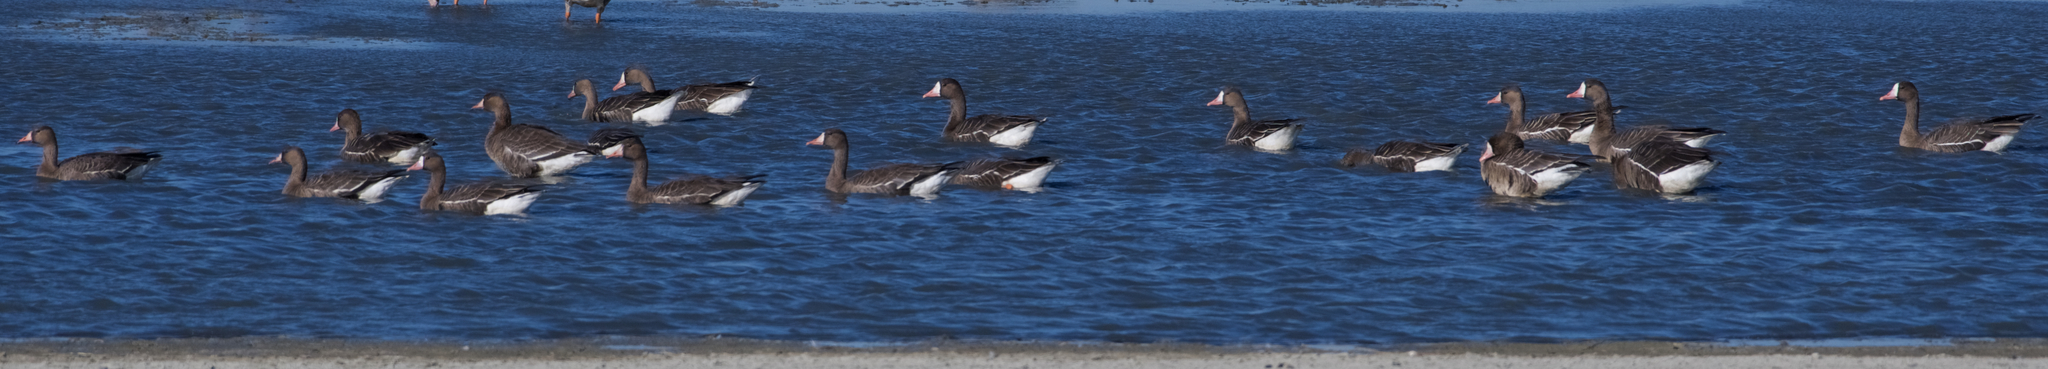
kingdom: Animalia
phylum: Chordata
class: Aves
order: Anseriformes
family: Anatidae
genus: Anser
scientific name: Anser albifrons
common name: Greater white-fronted goose
